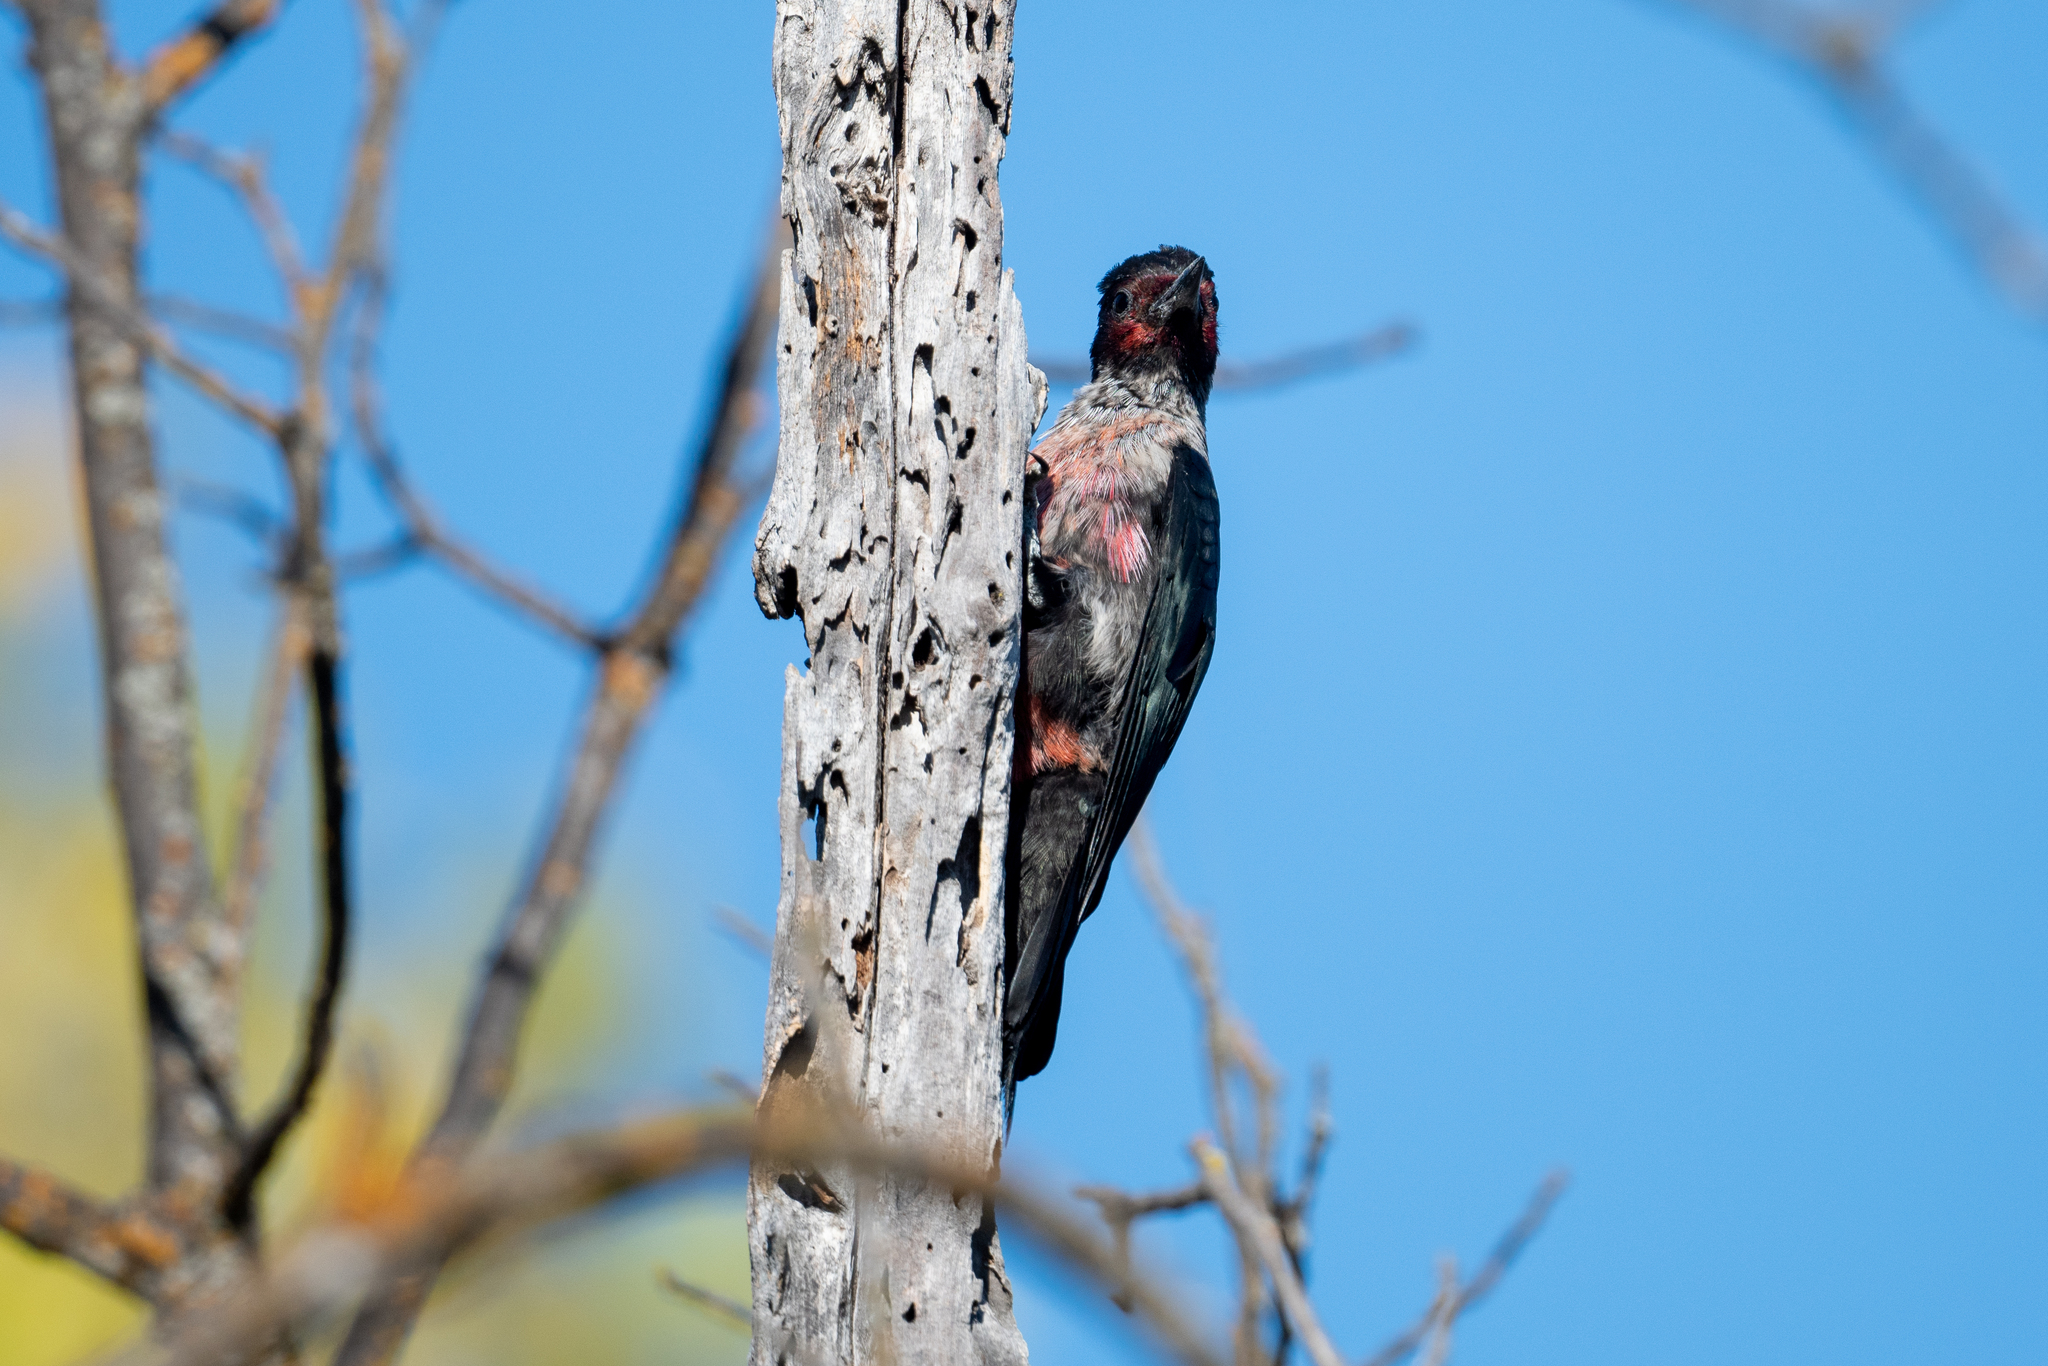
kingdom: Animalia
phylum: Chordata
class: Aves
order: Piciformes
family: Picidae
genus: Melanerpes
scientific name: Melanerpes lewis
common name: Lewis's woodpecker
